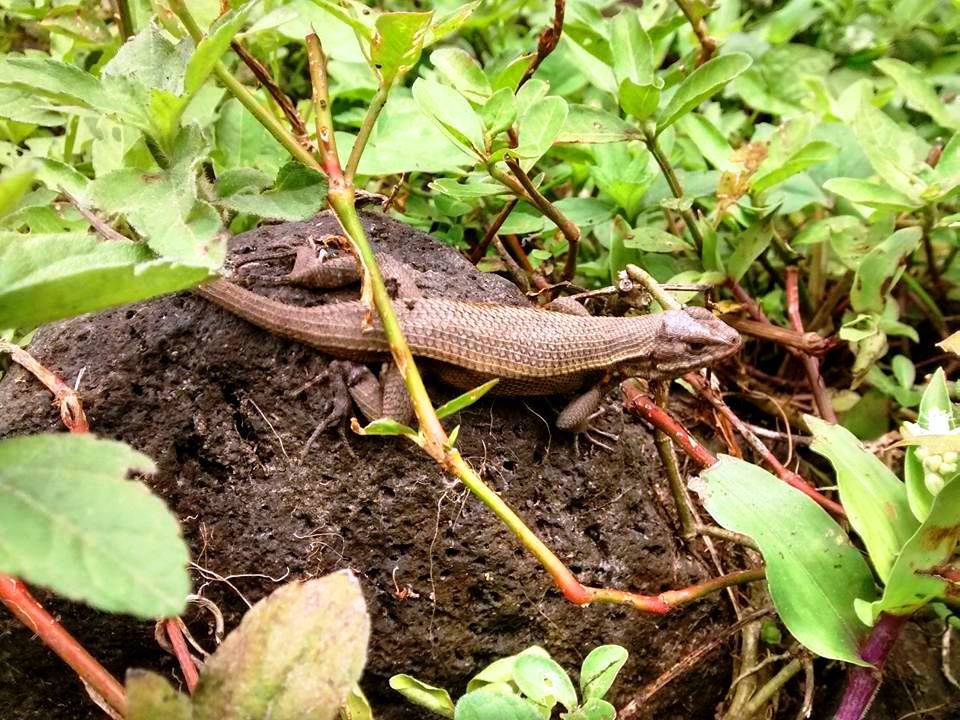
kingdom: Animalia
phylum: Chordata
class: Squamata
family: Phrynosomatidae
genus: Sceloporus
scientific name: Sceloporus variabilis
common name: Rosebelly lizard
